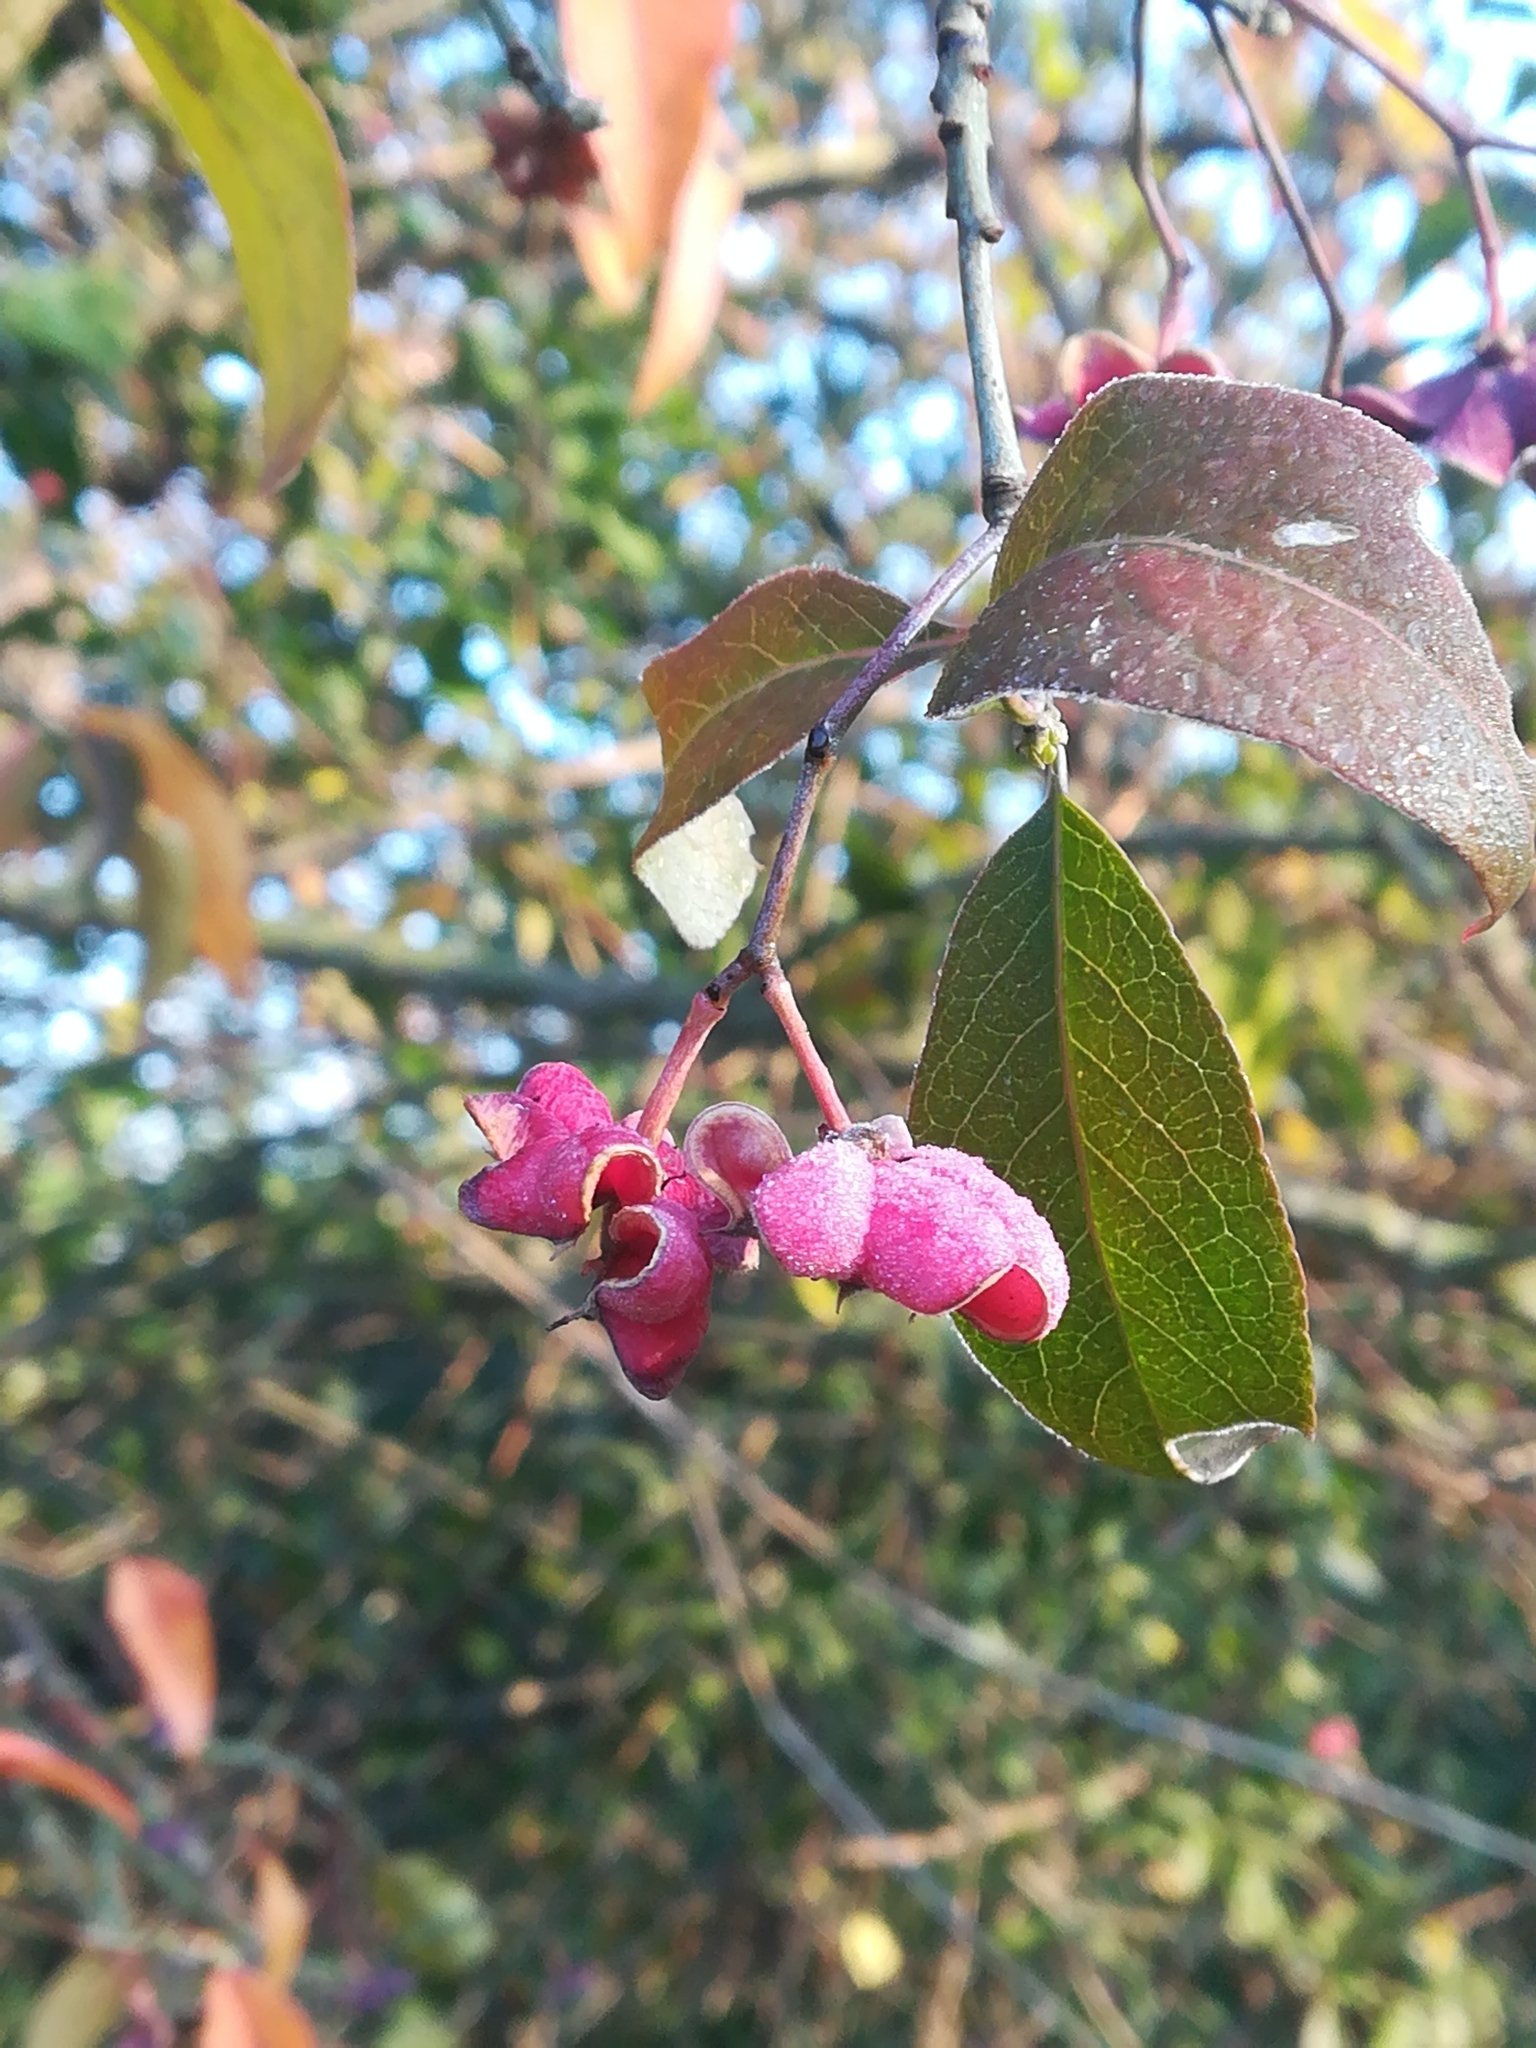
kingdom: Plantae
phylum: Tracheophyta
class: Magnoliopsida
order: Celastrales
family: Celastraceae
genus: Euonymus
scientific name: Euonymus europaeus
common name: Spindle
